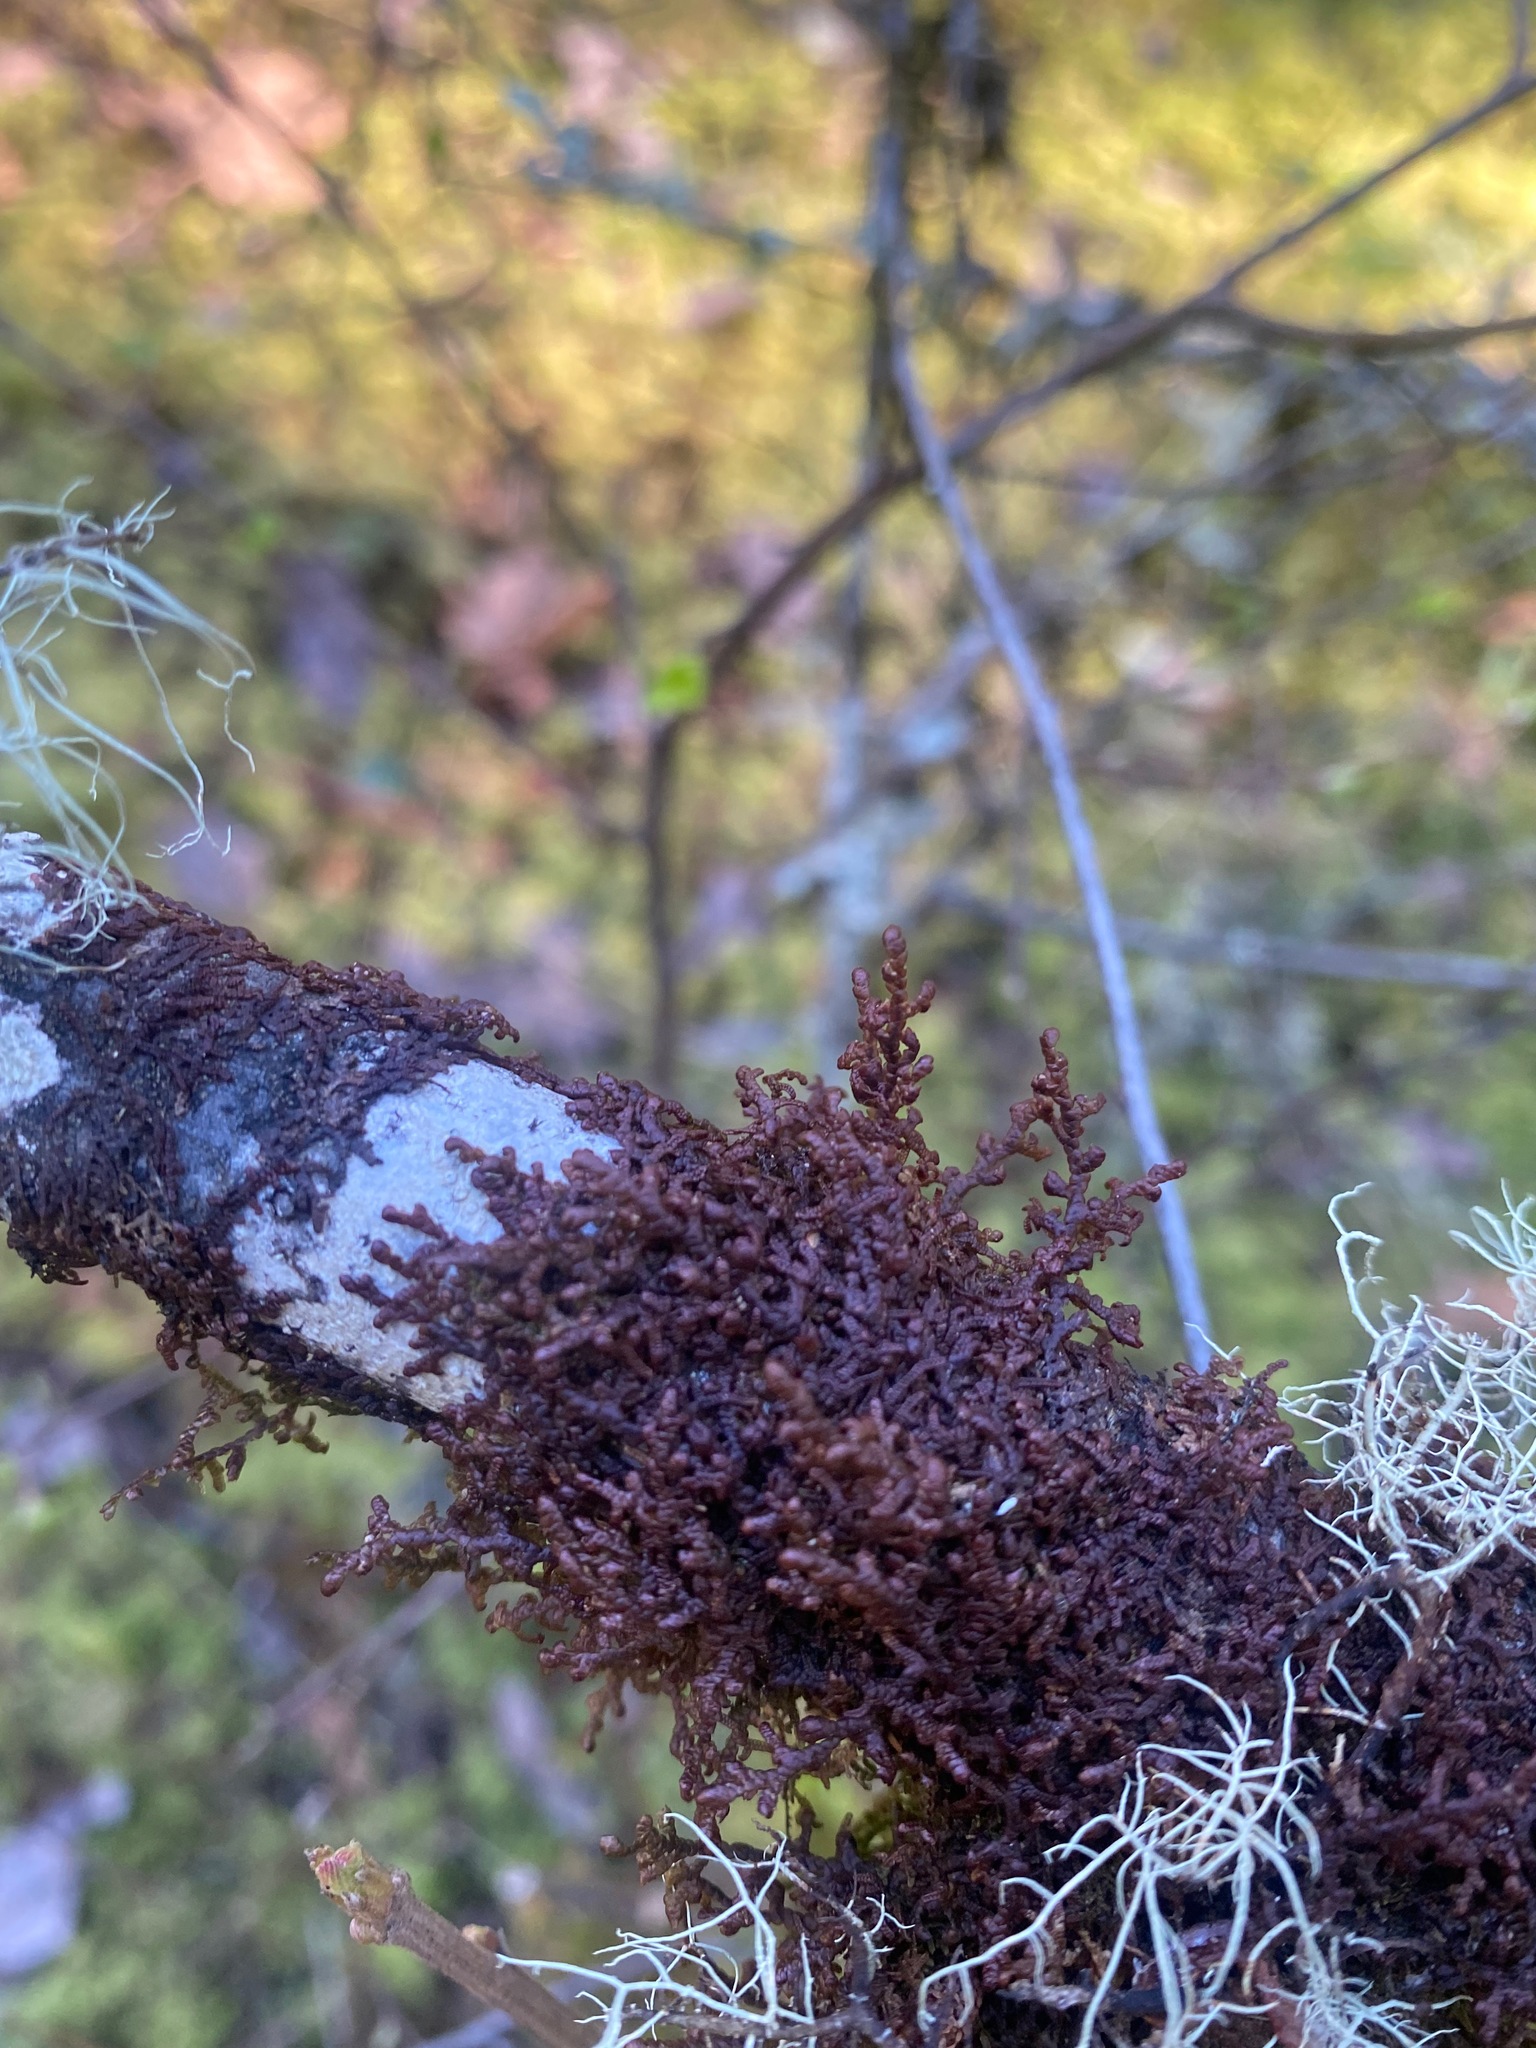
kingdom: Plantae
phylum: Marchantiophyta
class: Jungermanniopsida
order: Porellales
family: Frullaniaceae
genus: Frullania
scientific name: Frullania nisquallensis
